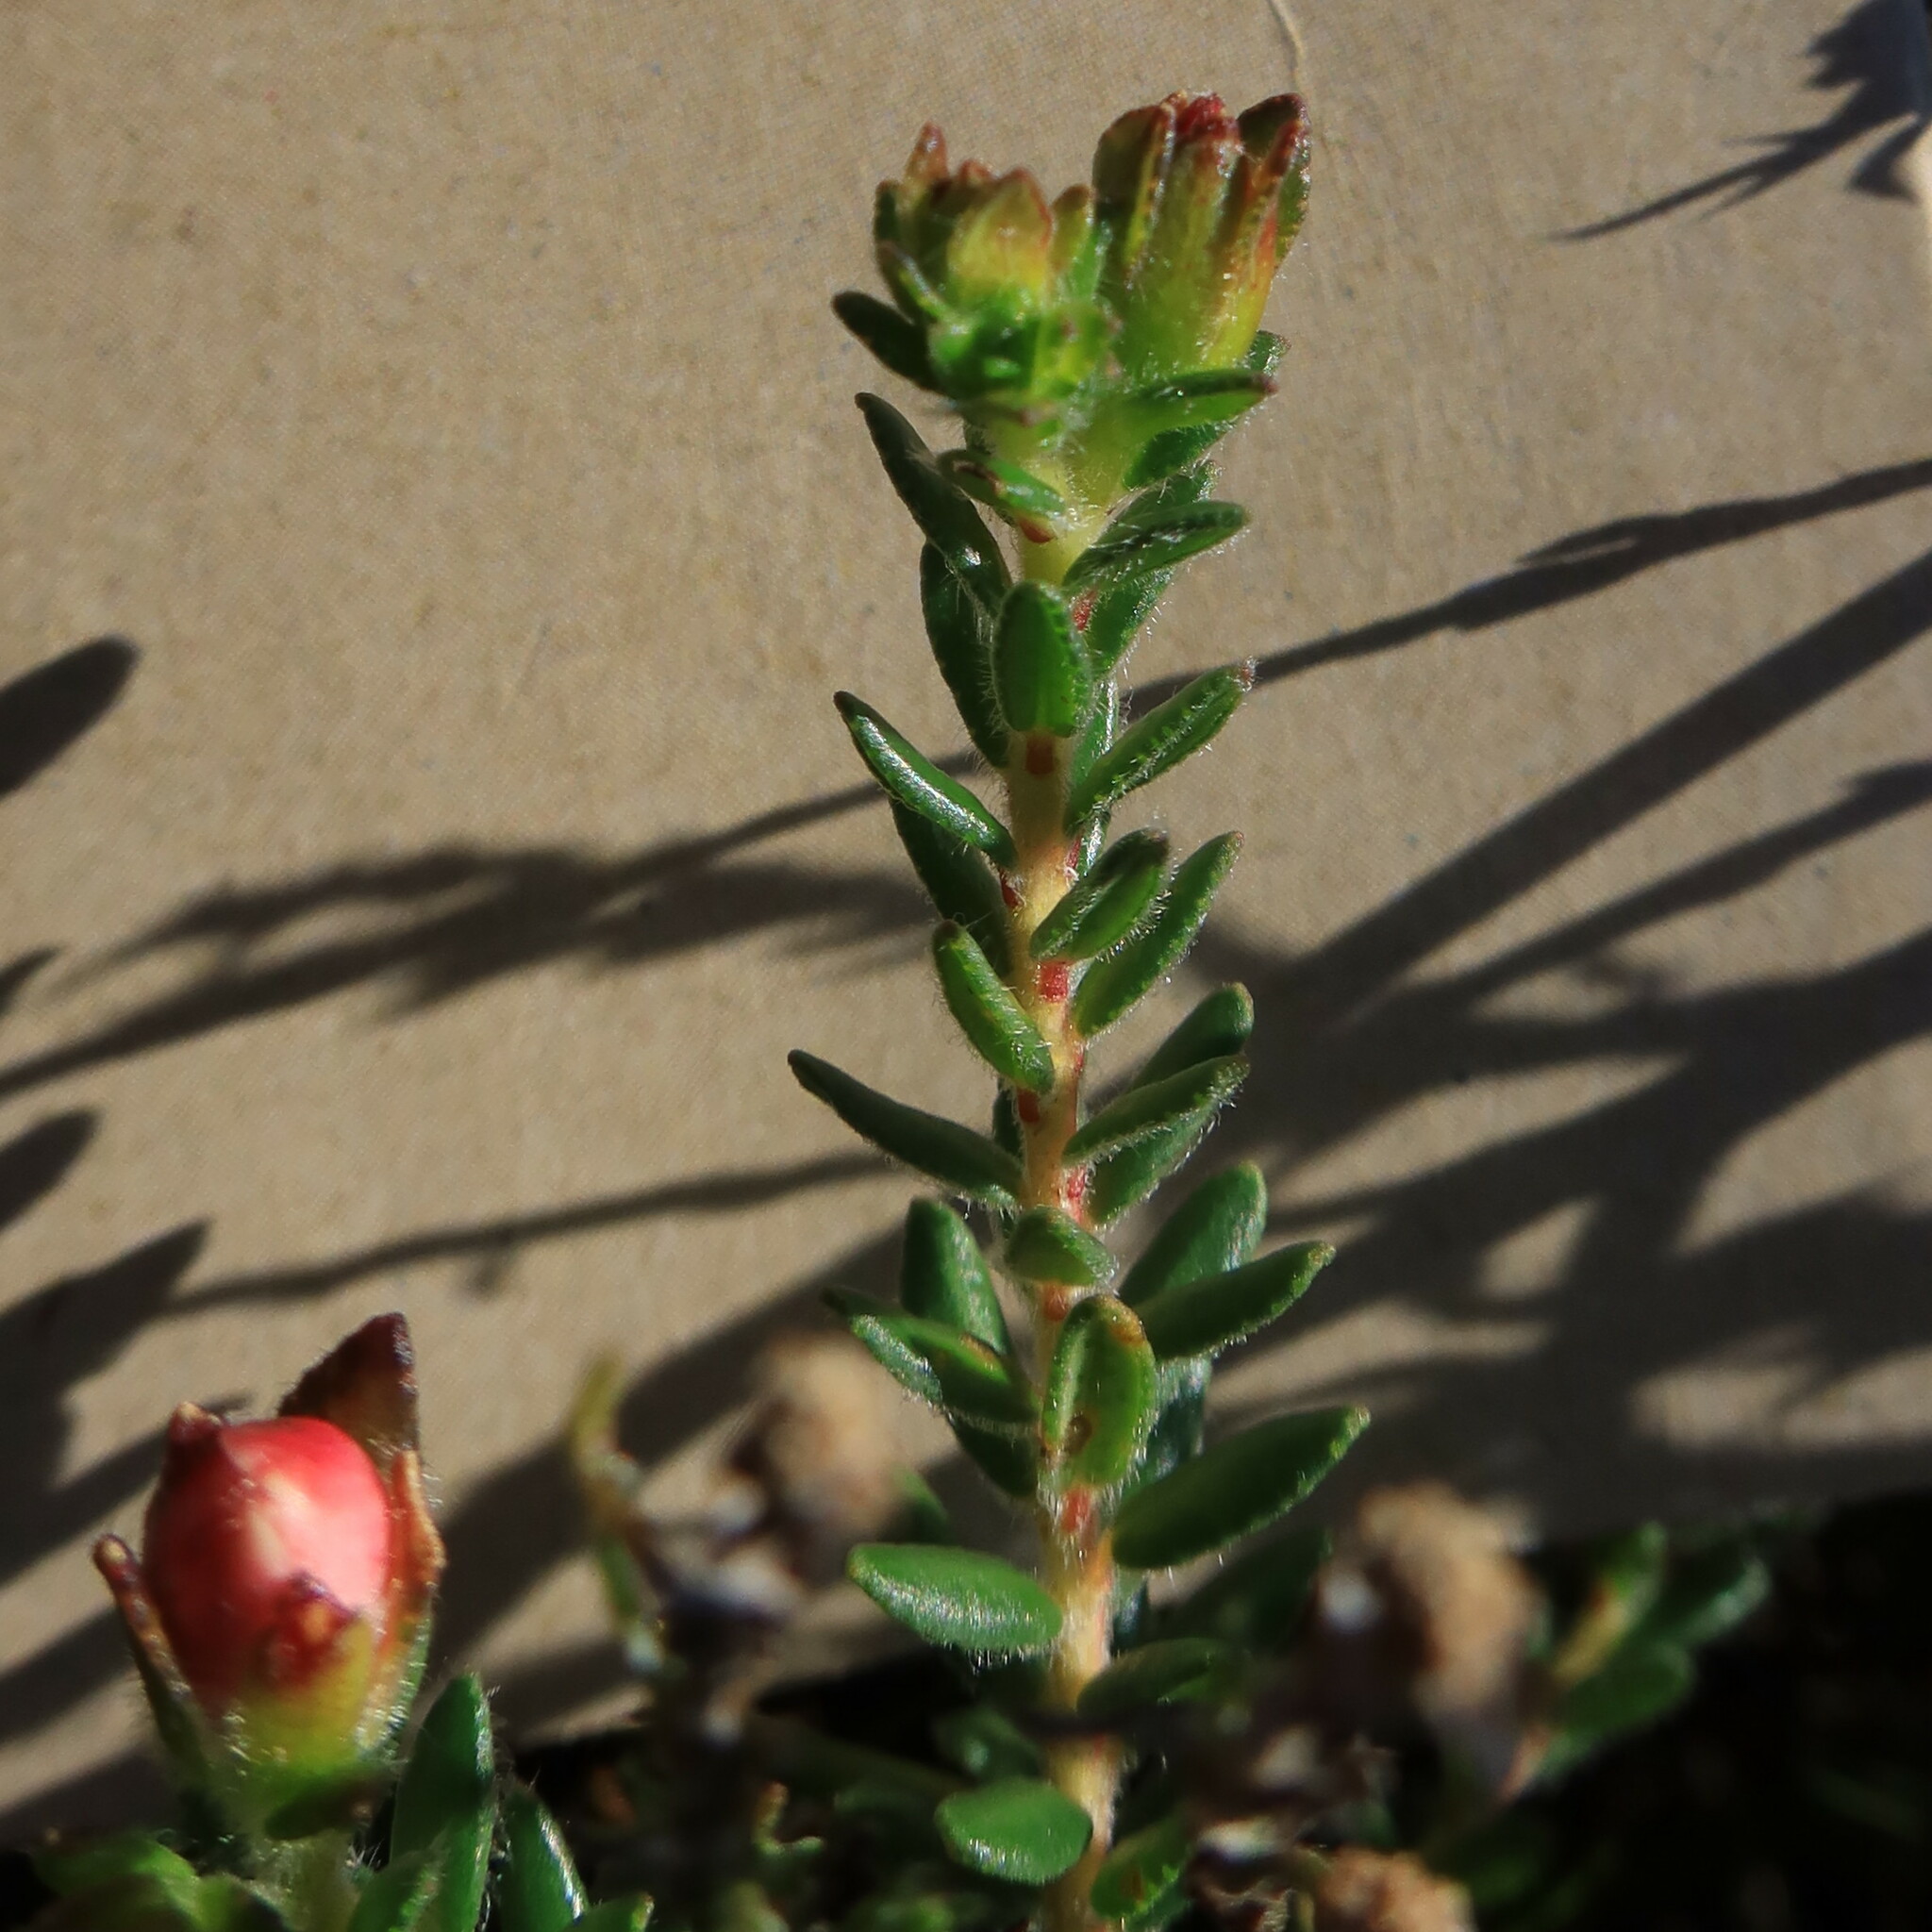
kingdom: Plantae
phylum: Tracheophyta
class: Magnoliopsida
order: Sapindales
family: Rutaceae
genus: Adenandra
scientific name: Adenandra uniflora
